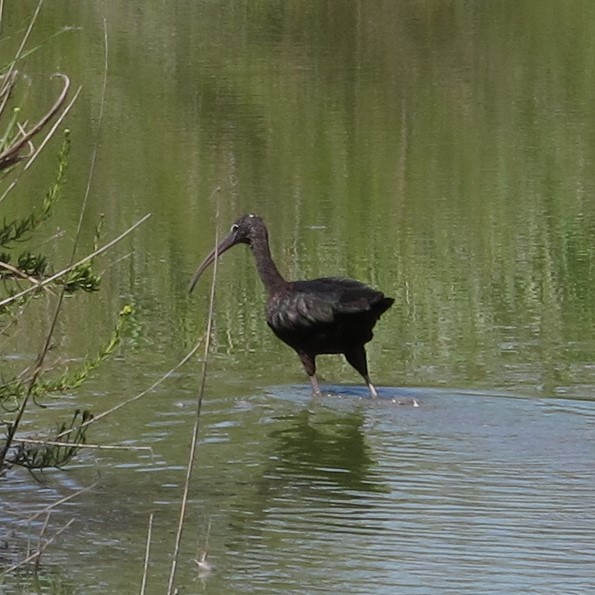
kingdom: Animalia
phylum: Chordata
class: Aves
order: Pelecaniformes
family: Threskiornithidae
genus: Plegadis
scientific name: Plegadis falcinellus
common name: Glossy ibis
